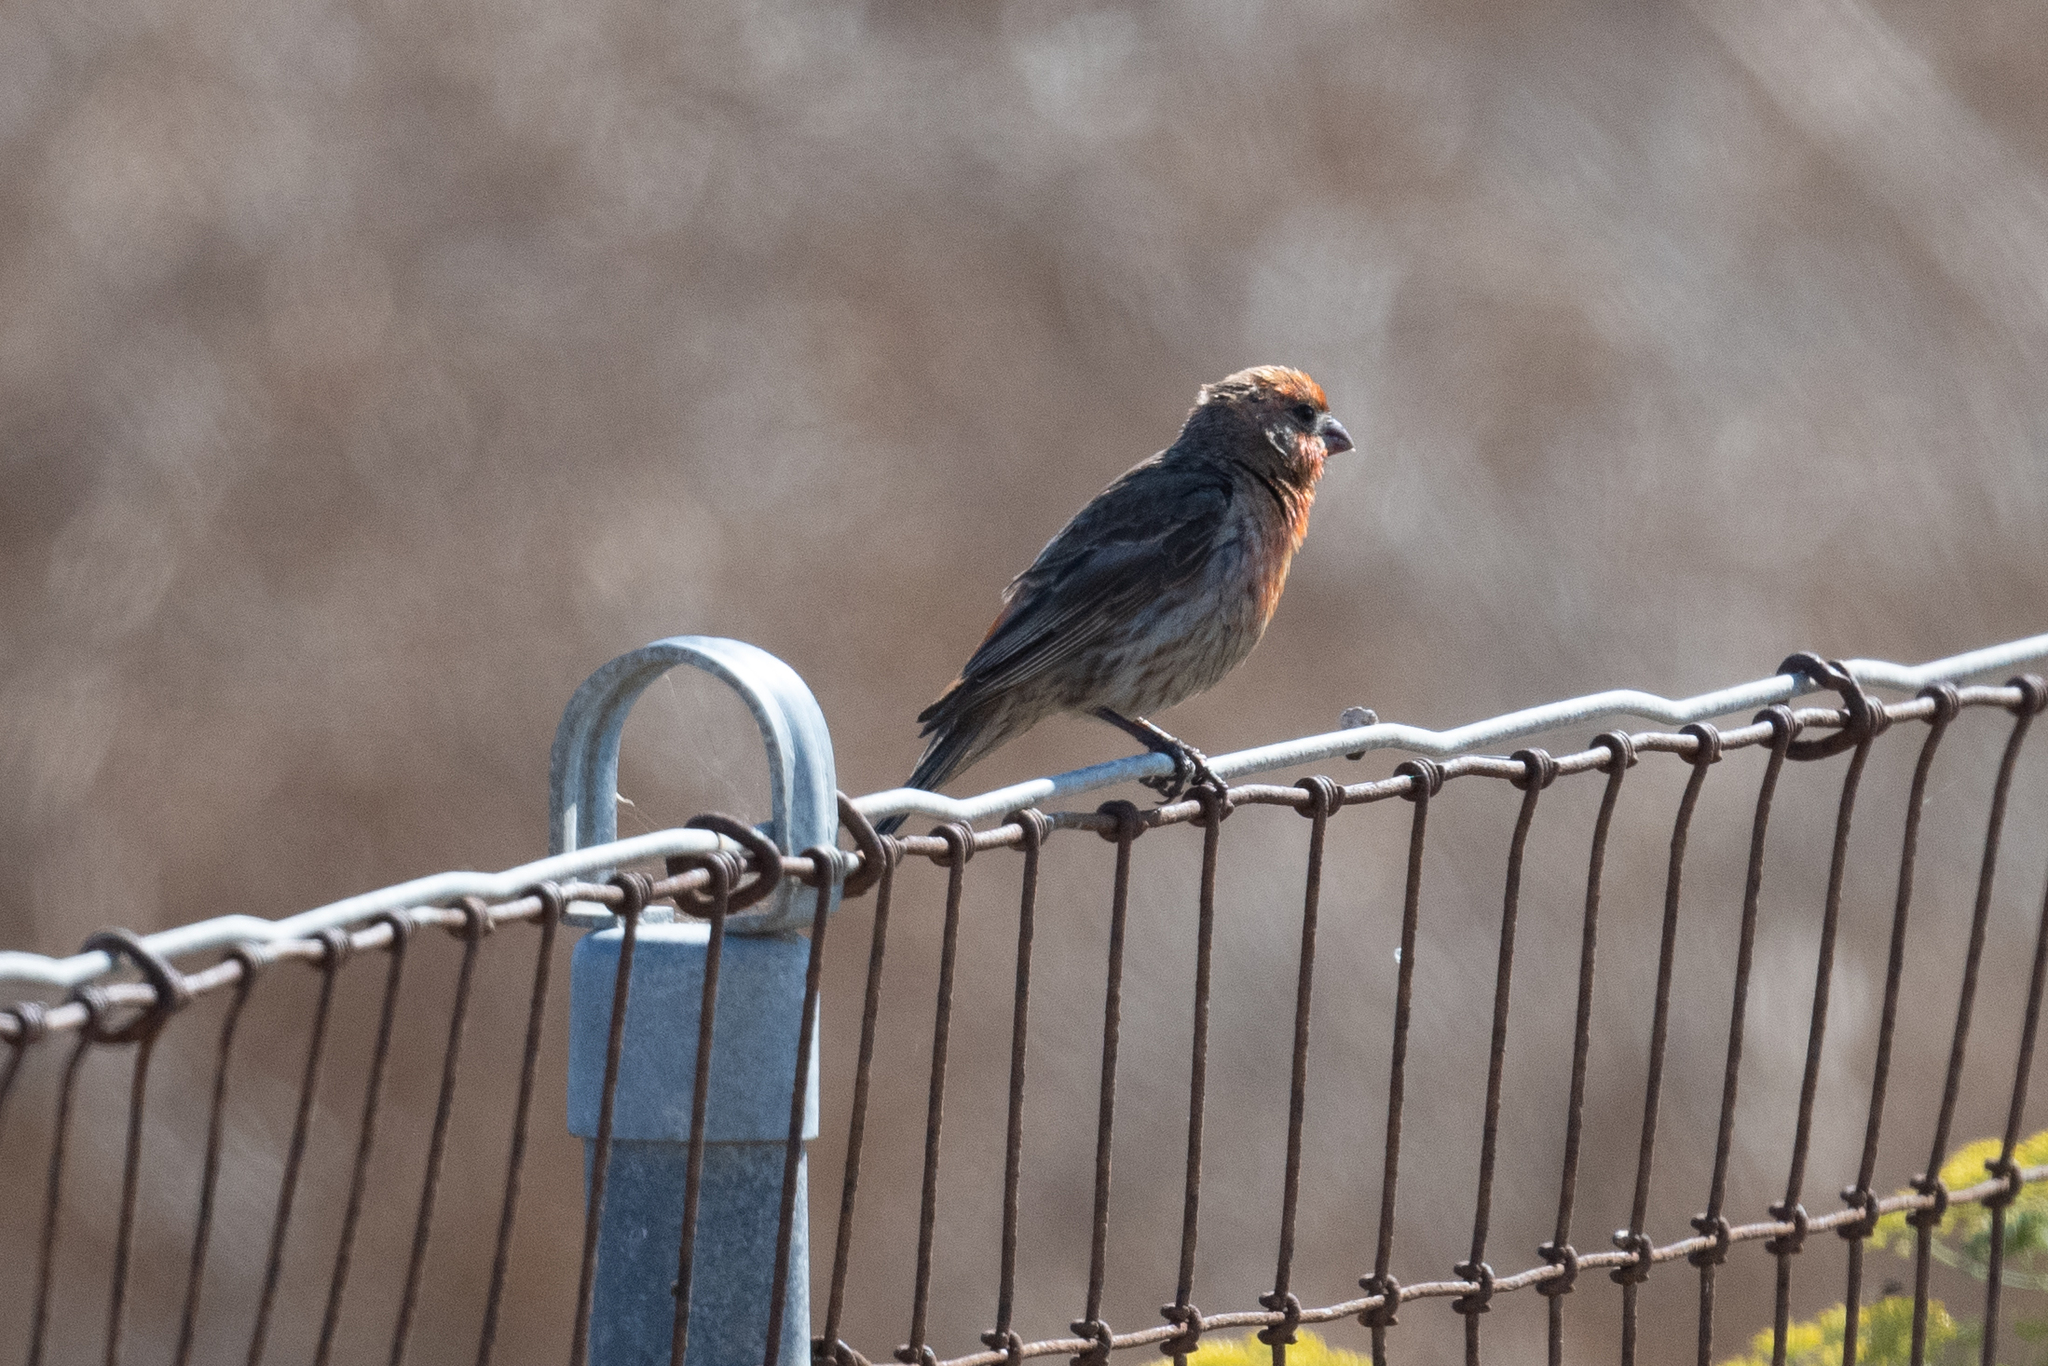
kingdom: Animalia
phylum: Chordata
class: Aves
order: Passeriformes
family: Fringillidae
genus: Haemorhous
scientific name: Haemorhous mexicanus
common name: House finch
